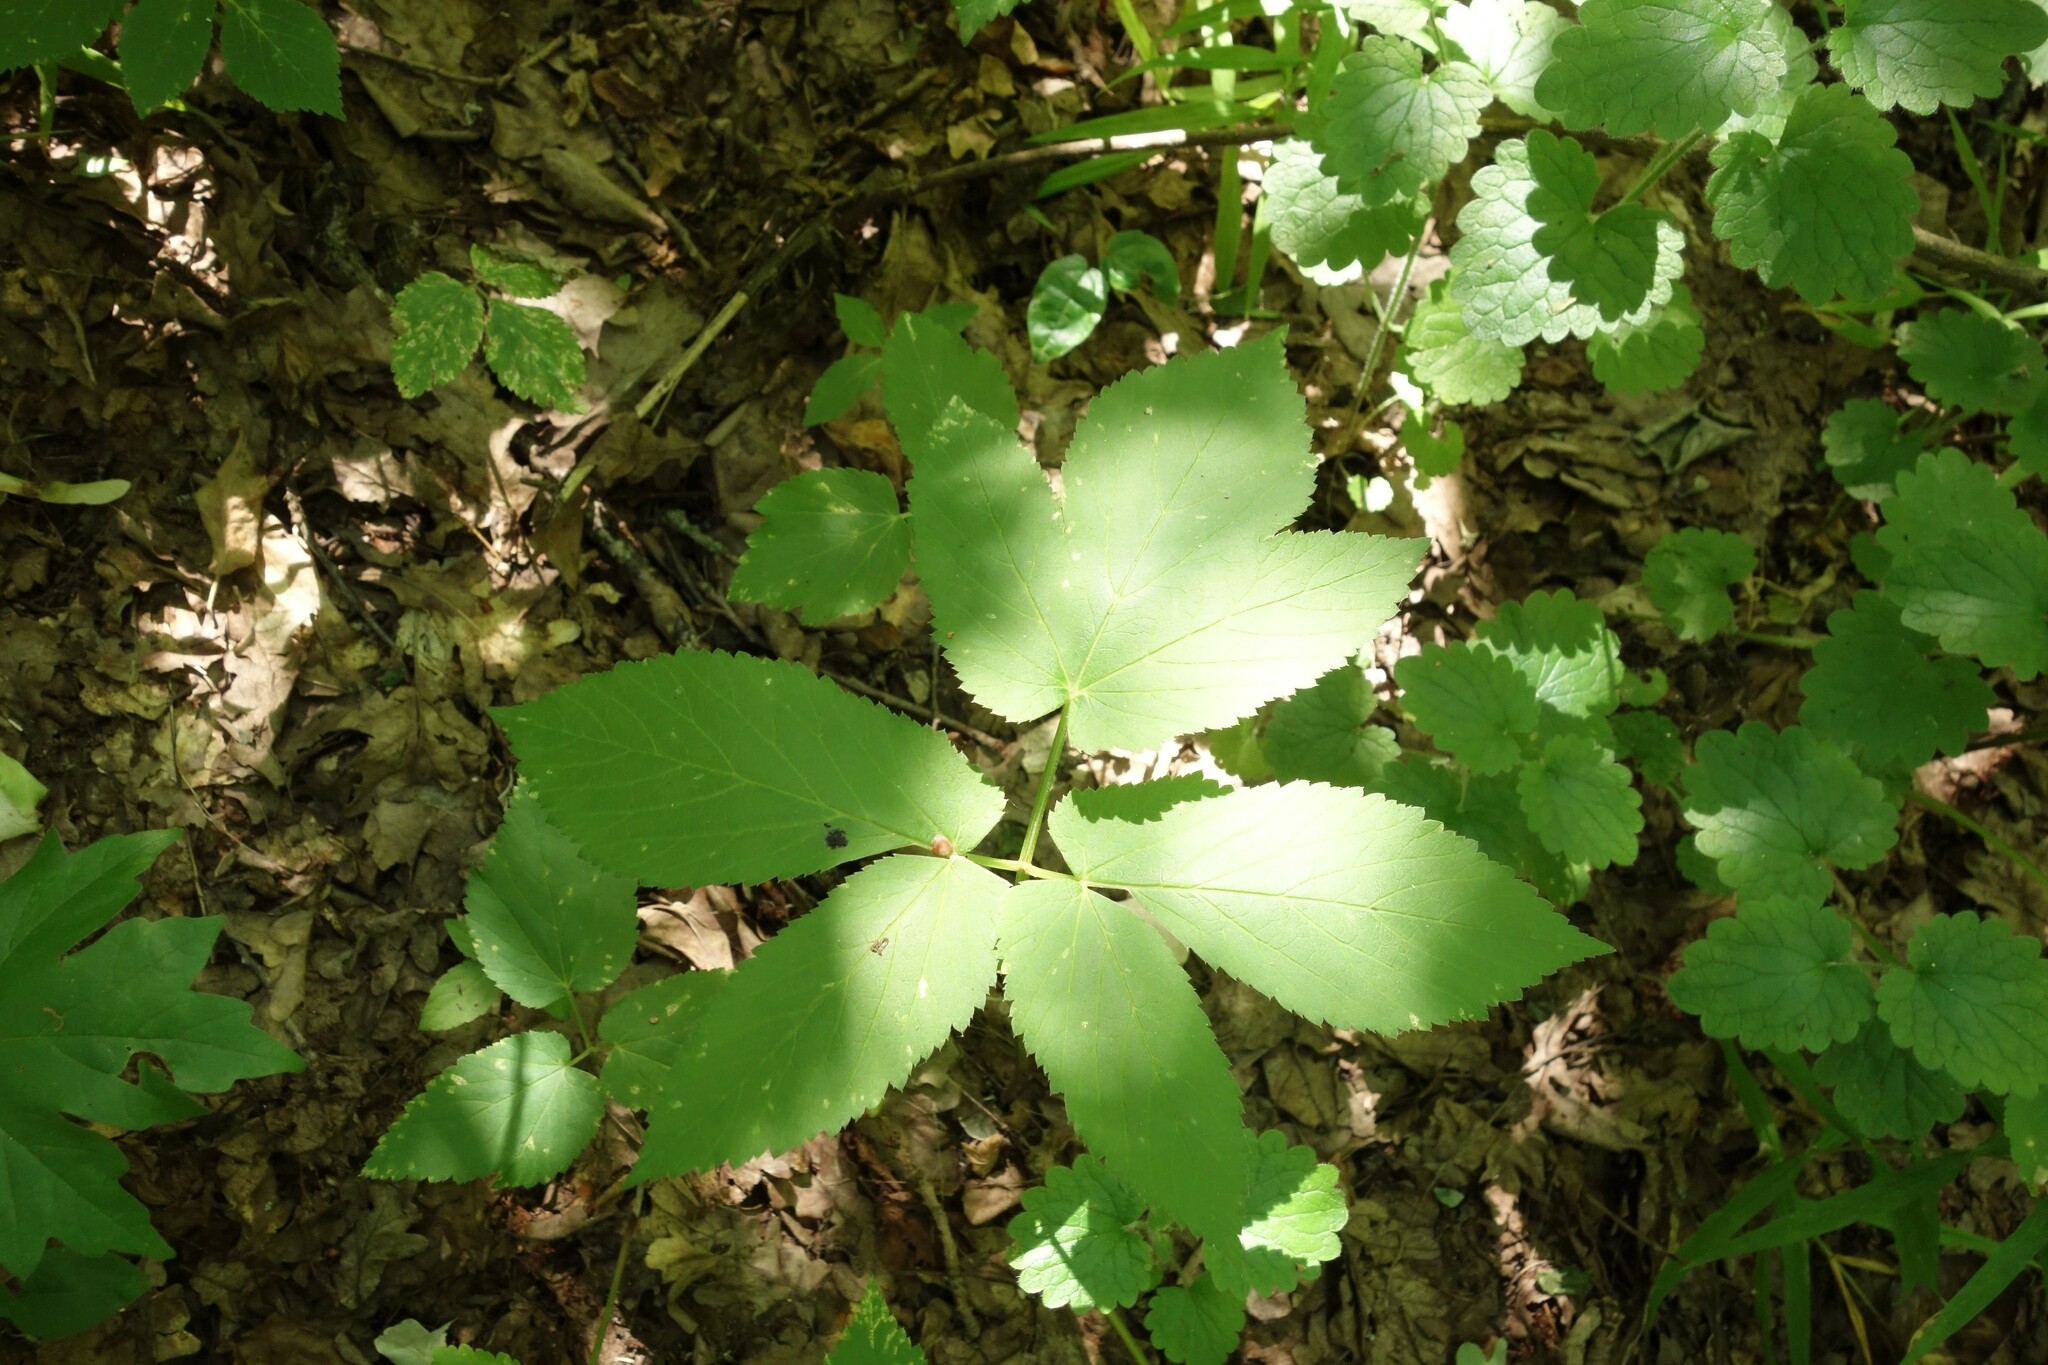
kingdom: Plantae
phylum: Tracheophyta
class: Magnoliopsida
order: Apiales
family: Apiaceae
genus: Aegopodium
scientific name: Aegopodium podagraria
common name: Ground-elder
